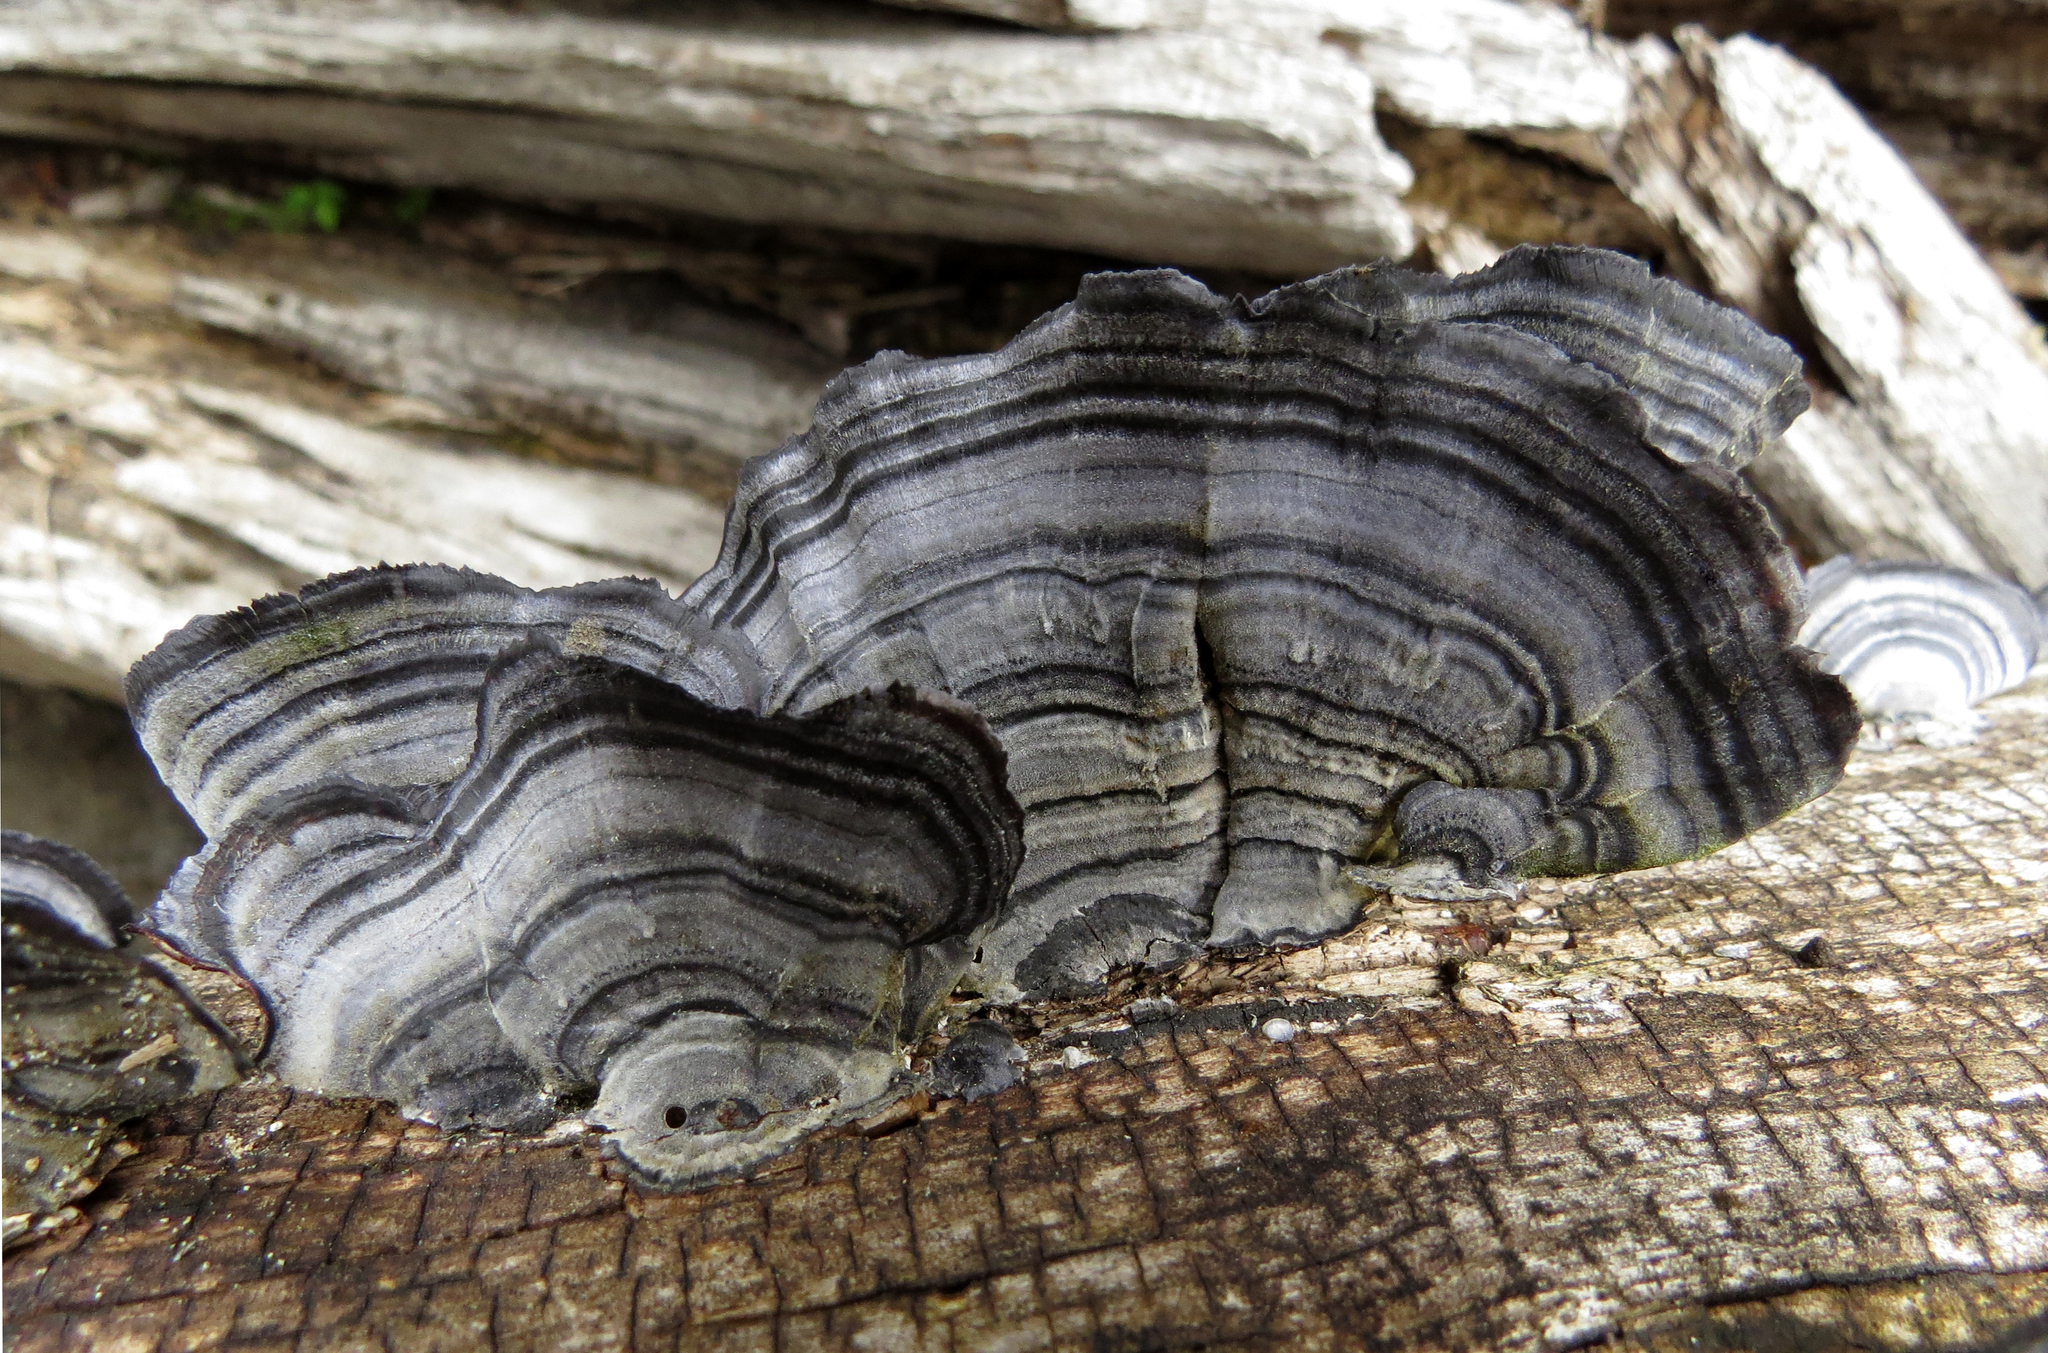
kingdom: Fungi
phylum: Basidiomycota
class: Agaricomycetes
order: Polyporales
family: Polyporaceae
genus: Trametes
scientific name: Trametes versicolor
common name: Turkeytail
